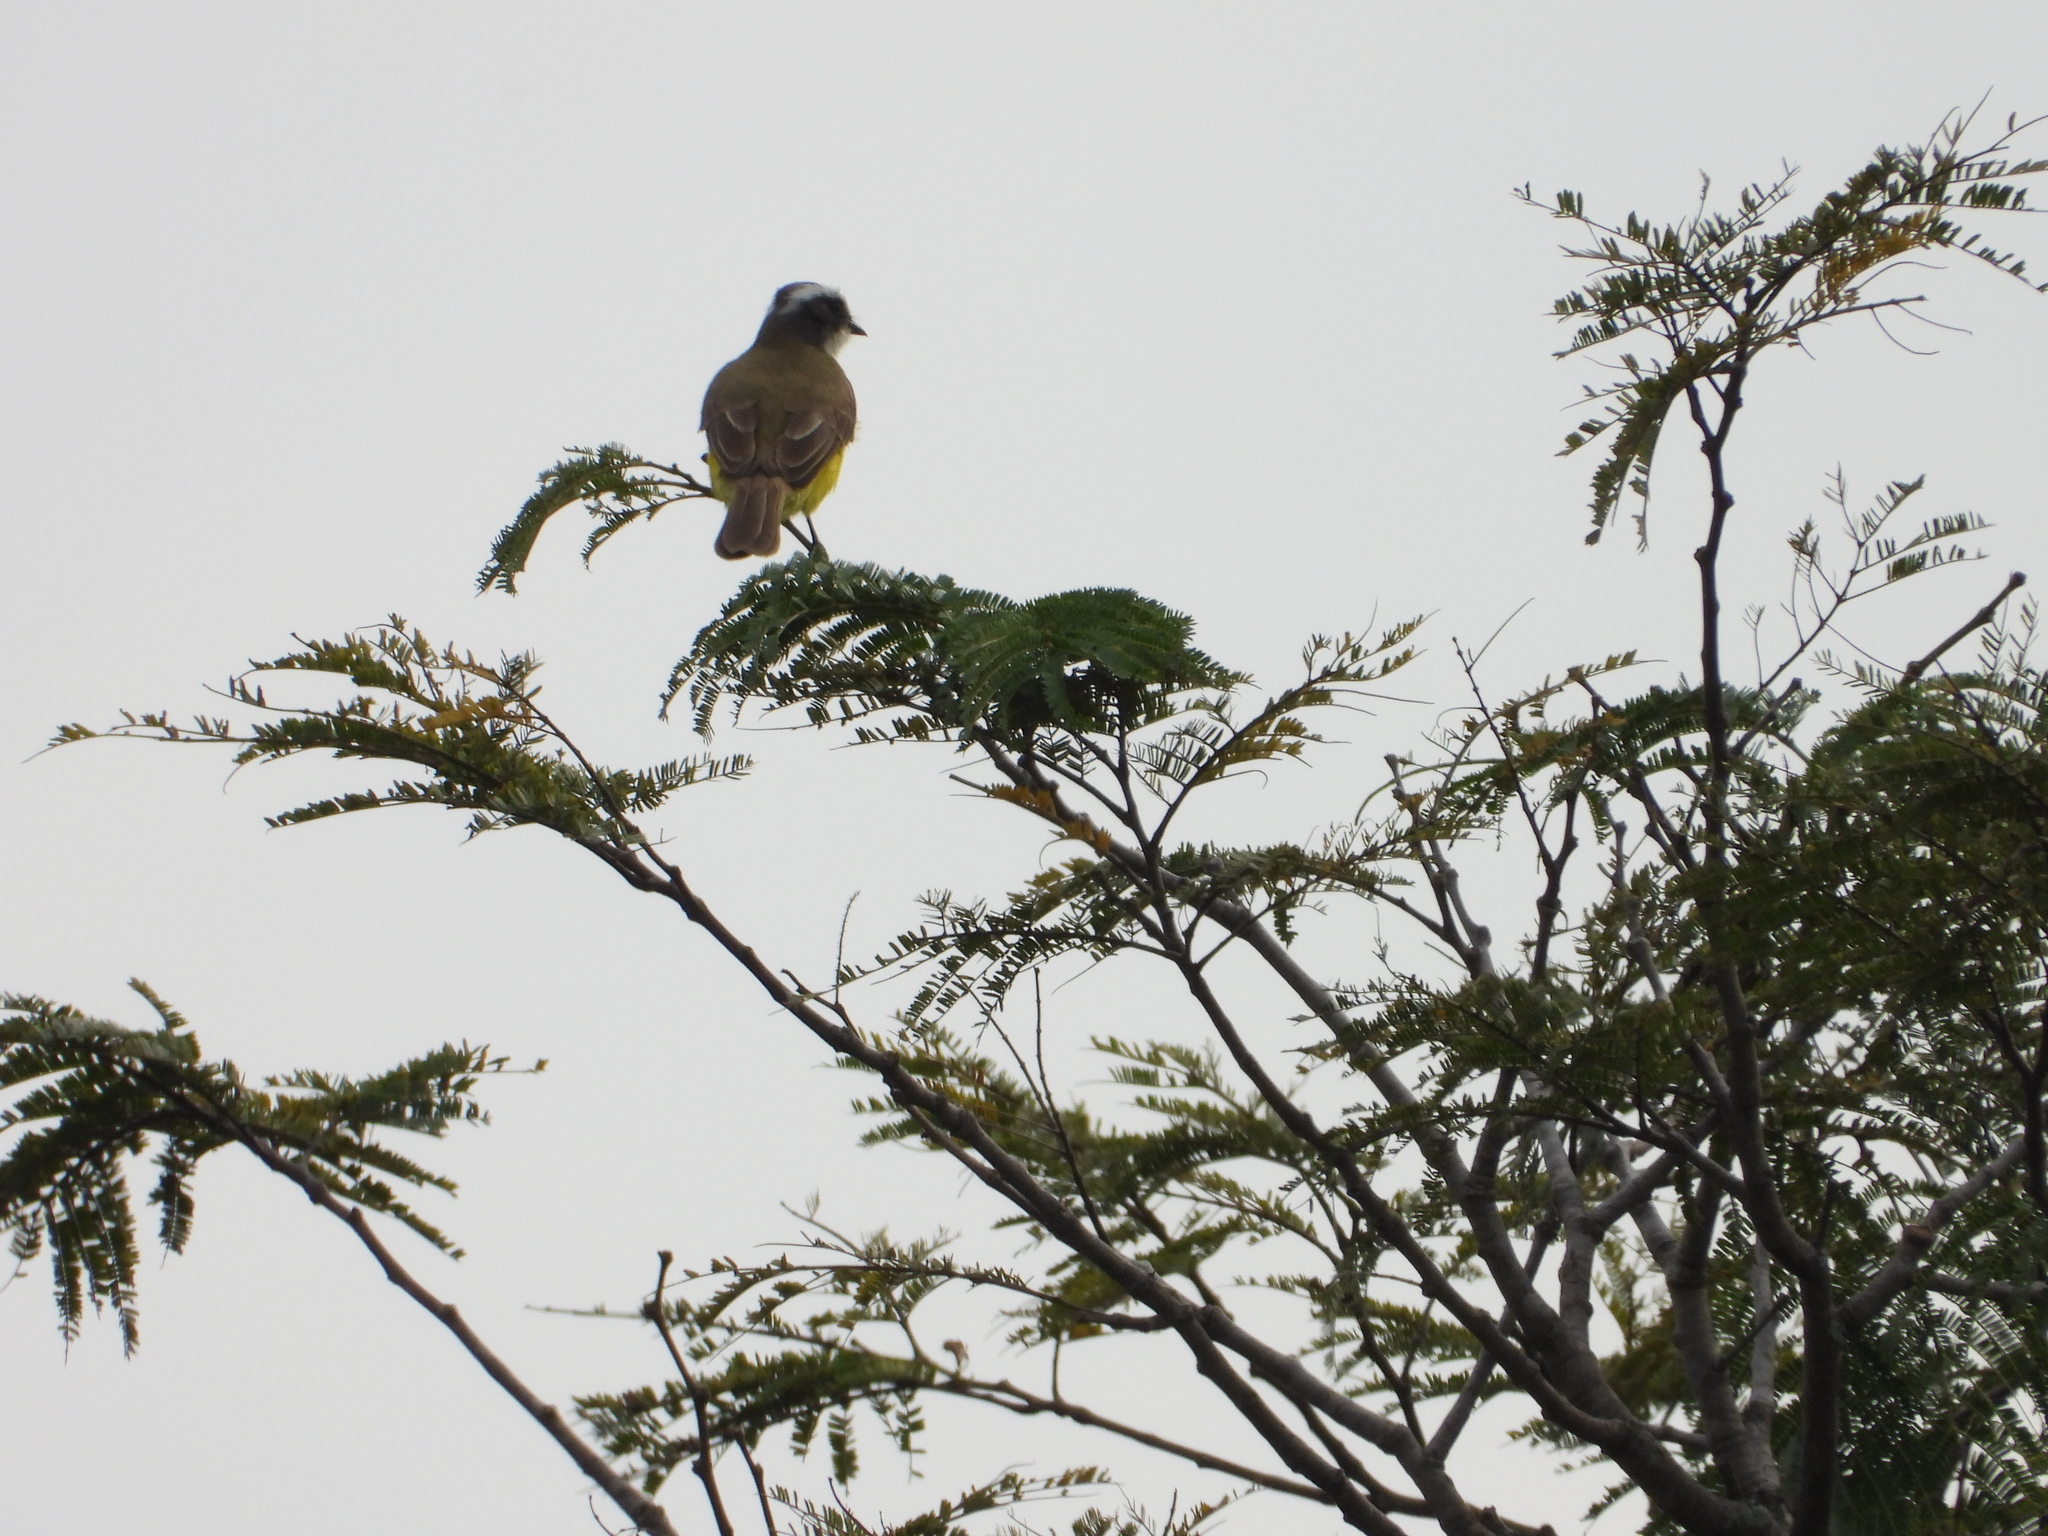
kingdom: Animalia
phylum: Chordata
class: Aves
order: Passeriformes
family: Tyrannidae
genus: Myiozetetes
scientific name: Myiozetetes similis
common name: Social flycatcher
